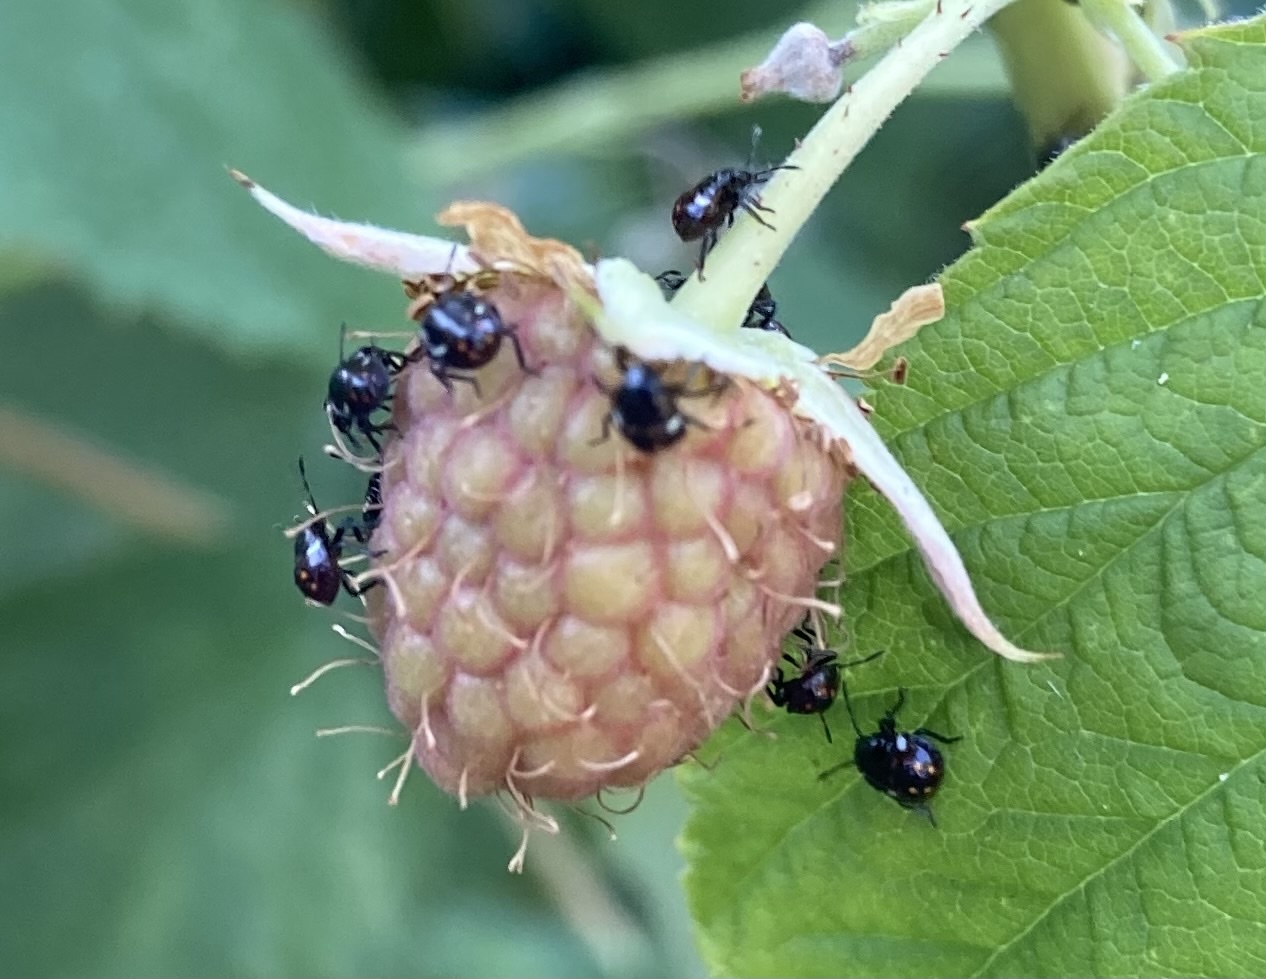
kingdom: Animalia
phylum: Arthropoda
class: Insecta
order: Hemiptera
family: Pentatomidae
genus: Nezara
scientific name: Nezara viridula
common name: Southern green stink bug
